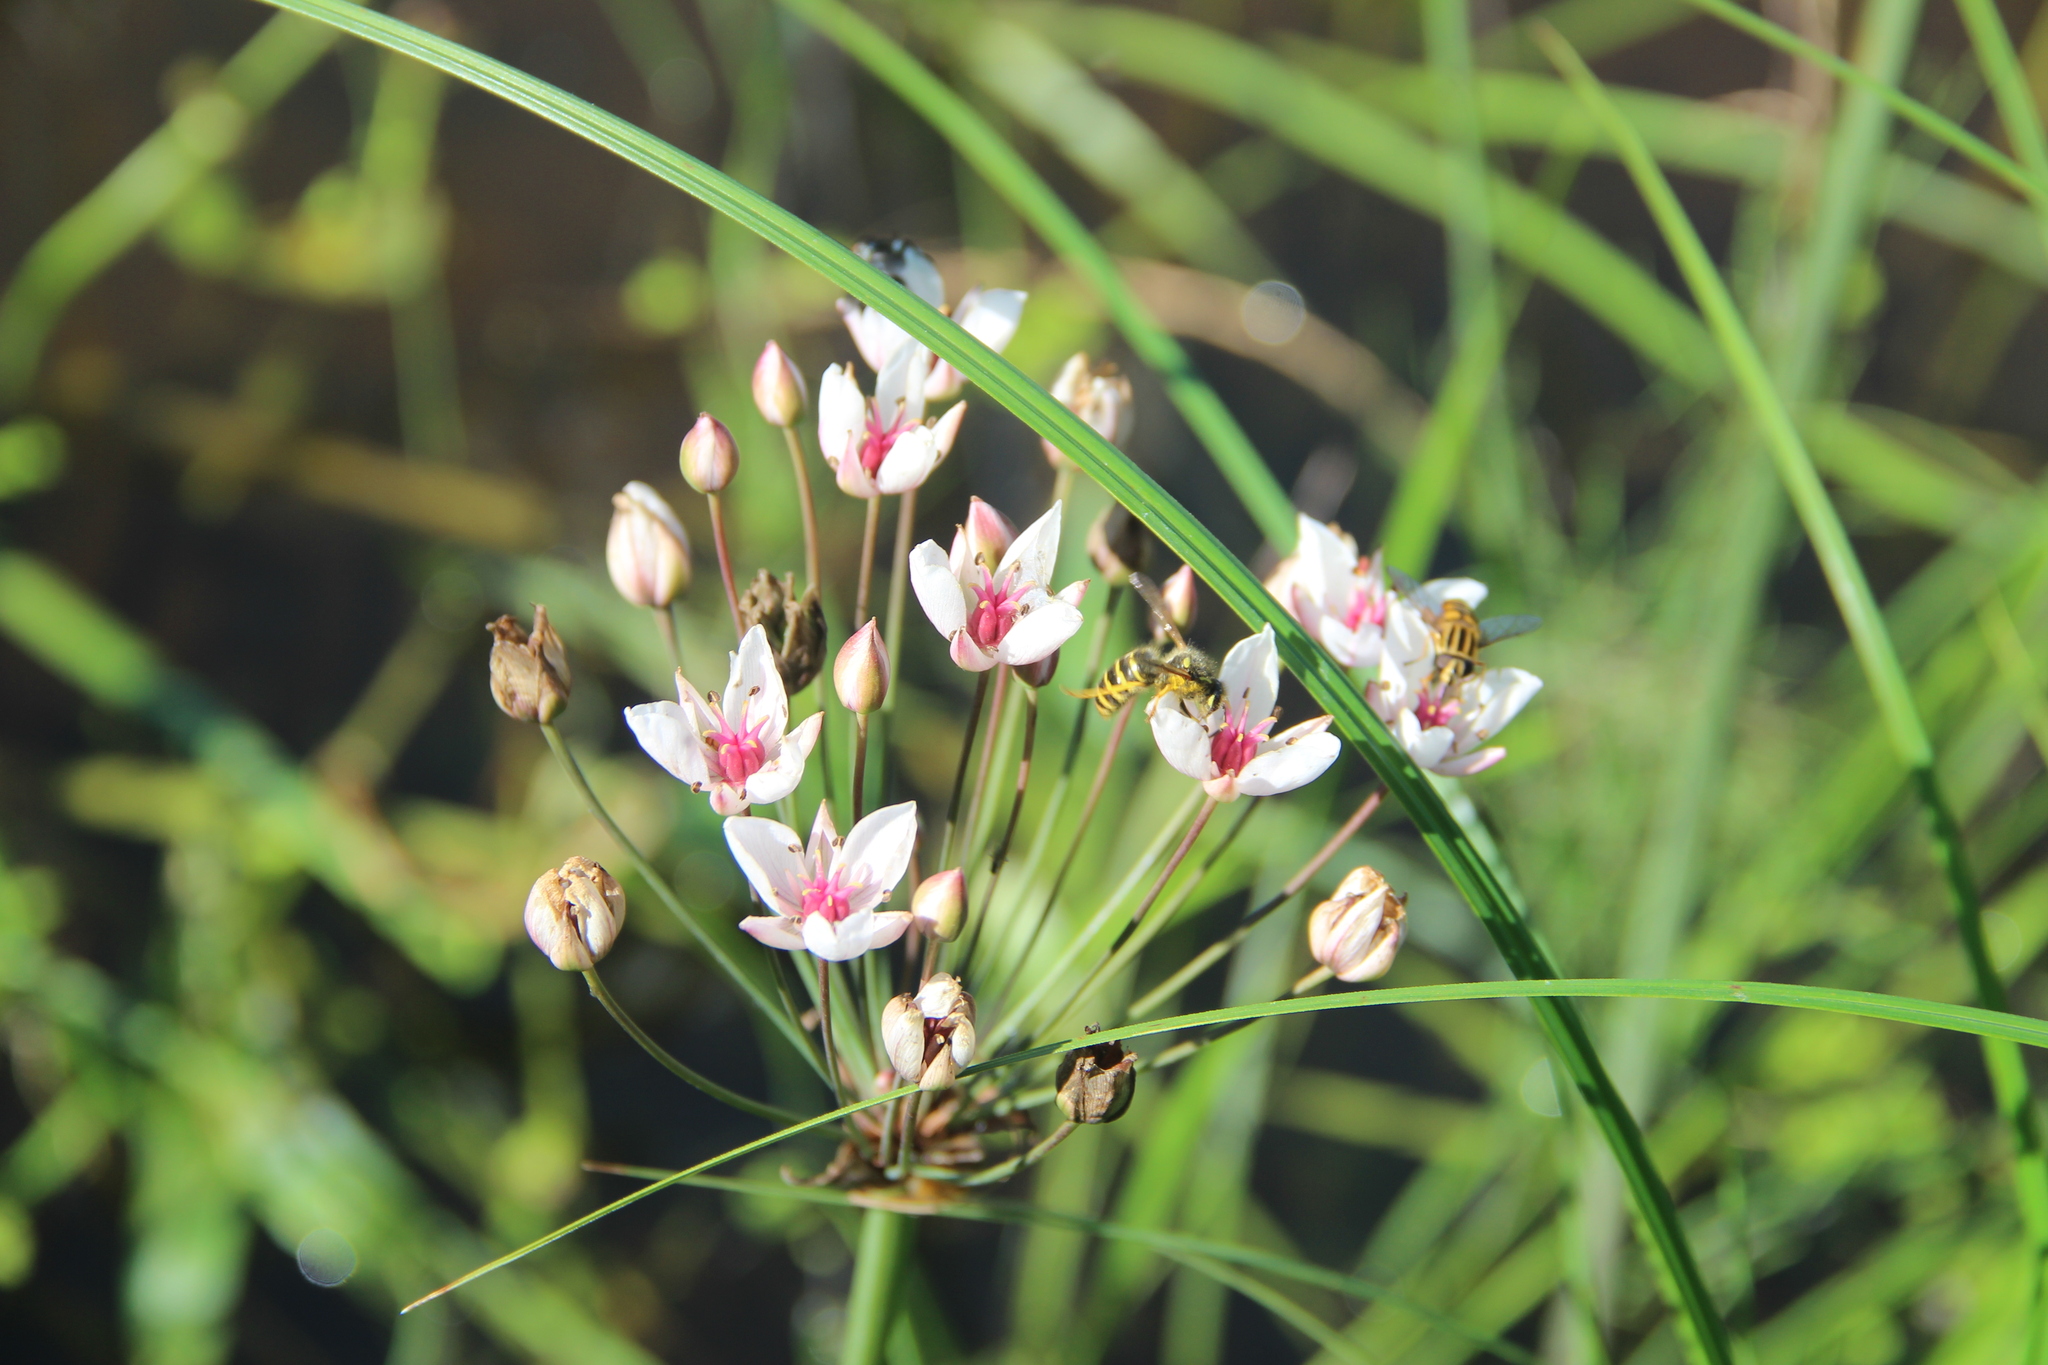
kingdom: Plantae
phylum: Tracheophyta
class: Liliopsida
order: Alismatales
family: Butomaceae
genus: Butomus
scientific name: Butomus umbellatus
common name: Flowering-rush
